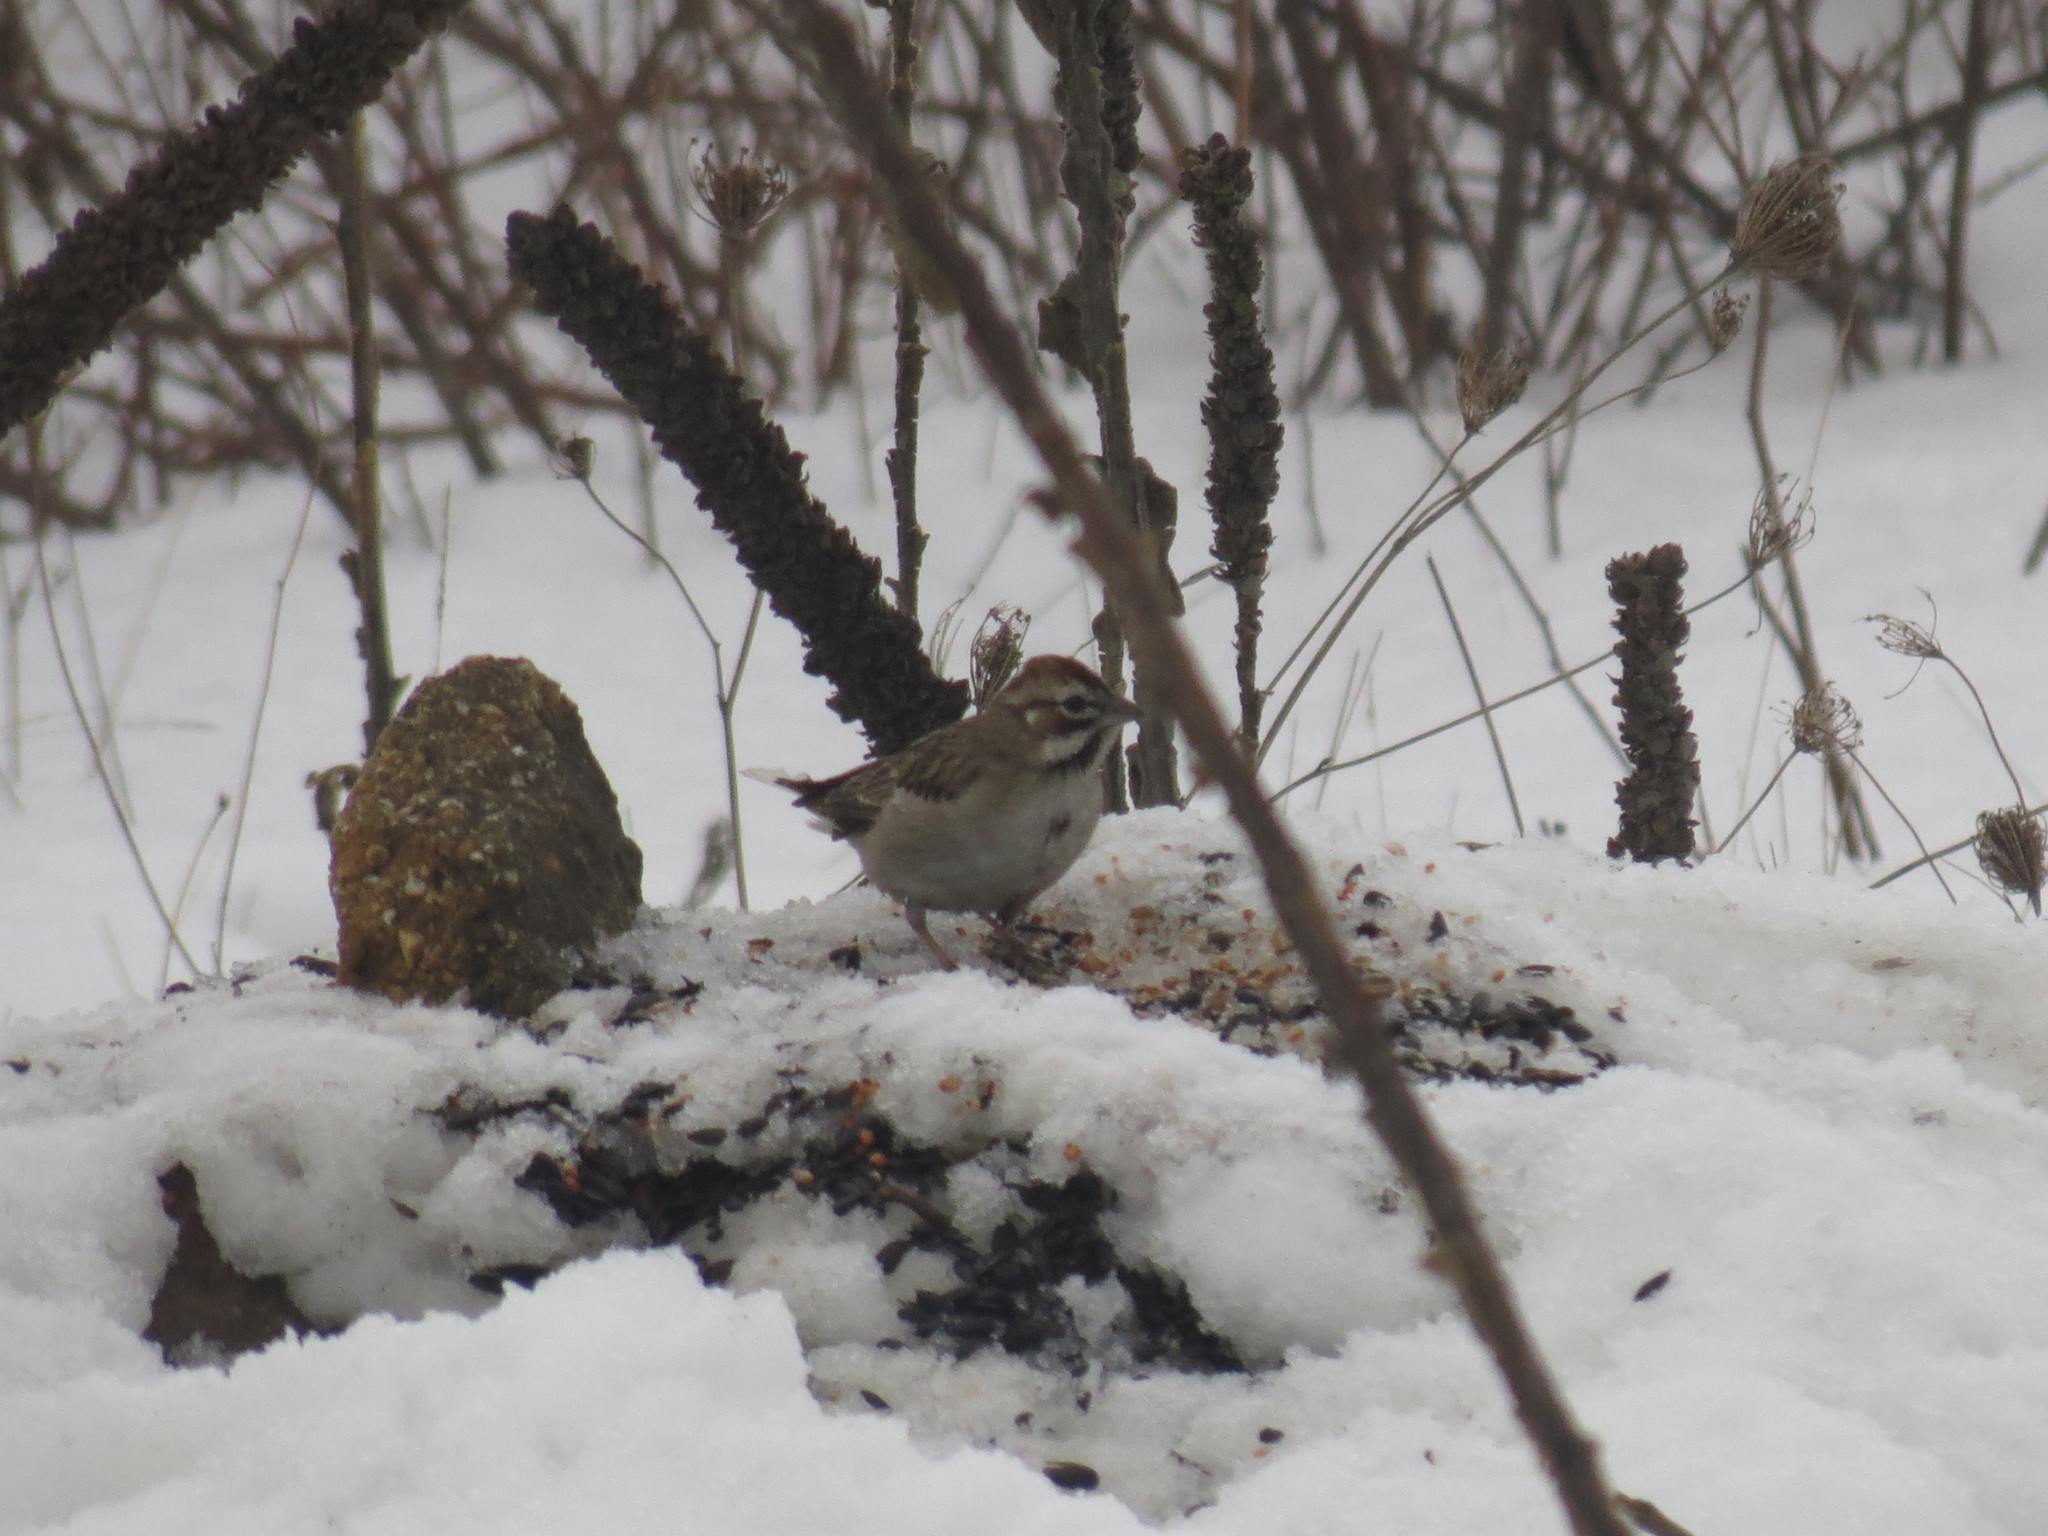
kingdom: Animalia
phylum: Chordata
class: Aves
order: Passeriformes
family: Passerellidae
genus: Chondestes
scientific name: Chondestes grammacus
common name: Lark sparrow
